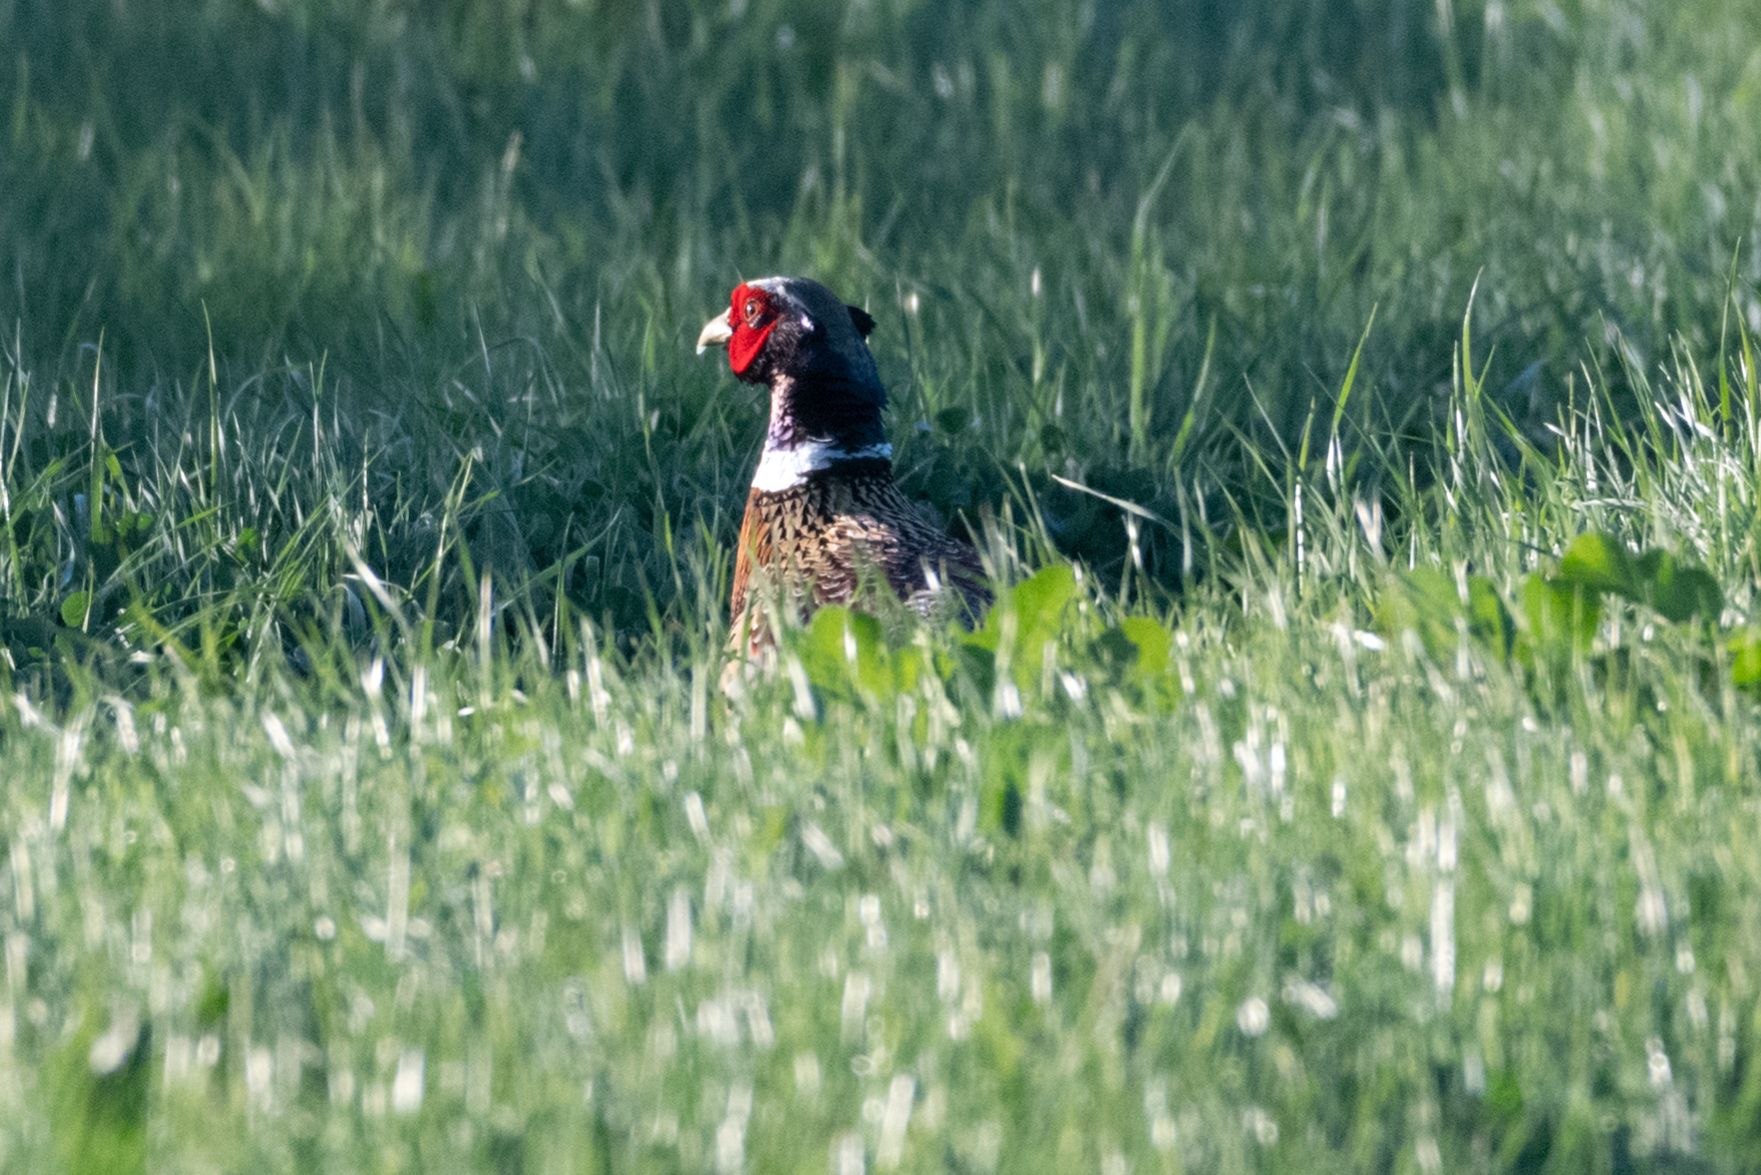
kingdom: Animalia
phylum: Chordata
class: Aves
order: Galliformes
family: Phasianidae
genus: Phasianus
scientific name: Phasianus colchicus
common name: Common pheasant
